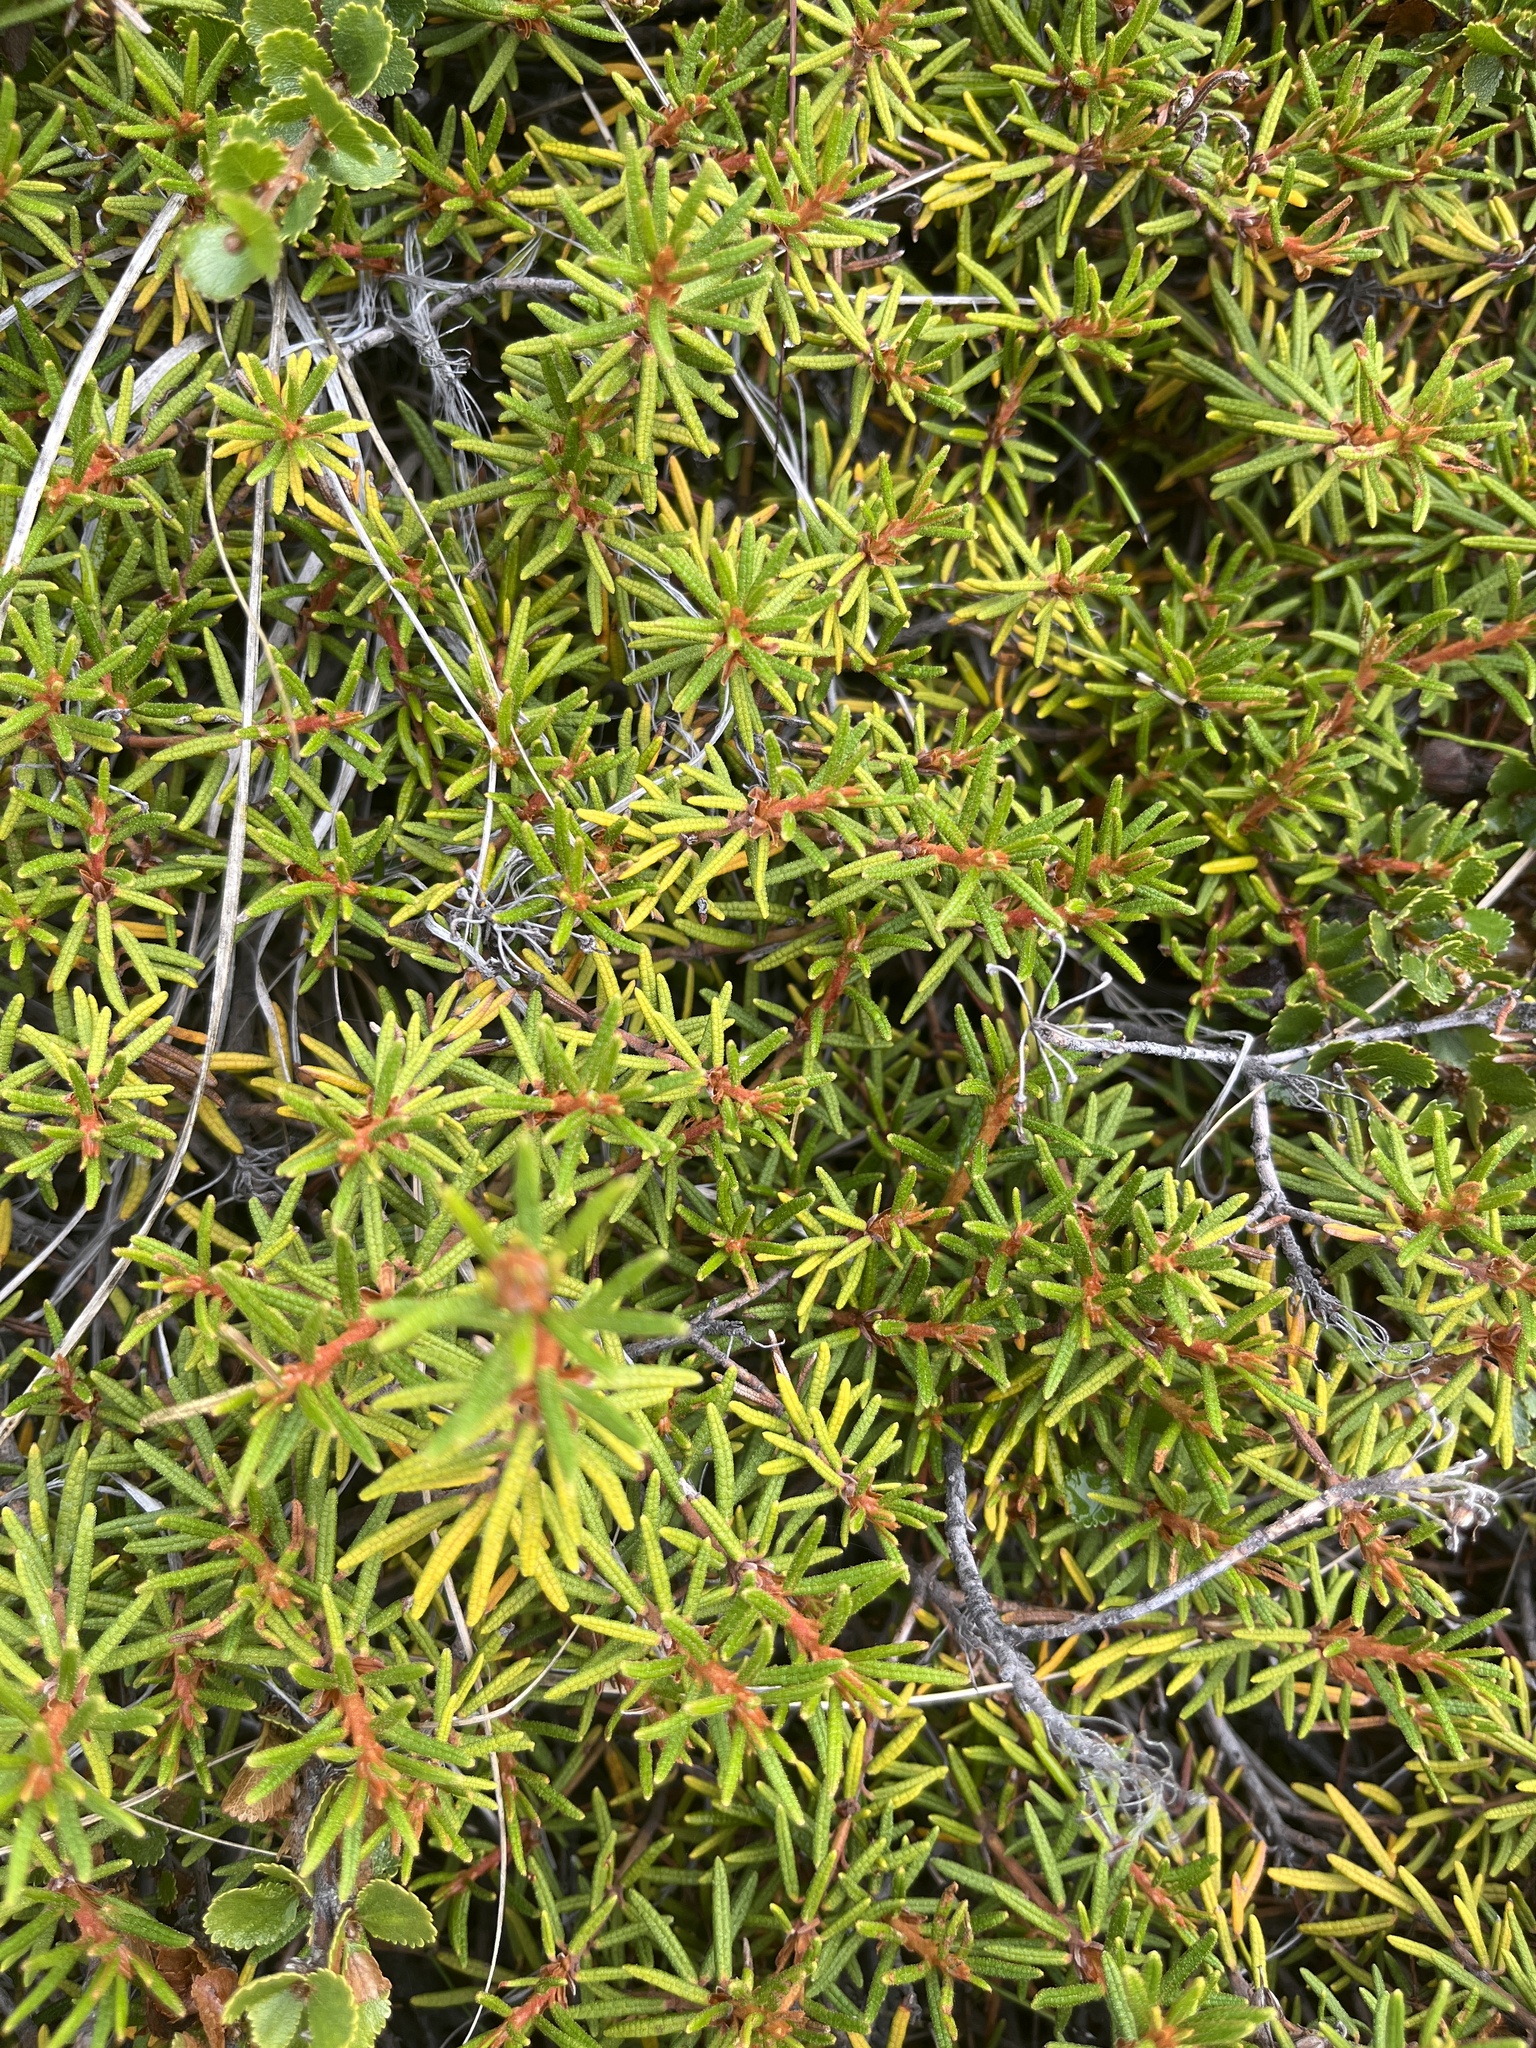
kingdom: Plantae
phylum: Tracheophyta
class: Magnoliopsida
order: Ericales
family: Ericaceae
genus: Rhododendron
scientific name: Rhododendron tomentosum
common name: Marsh labrador tea
